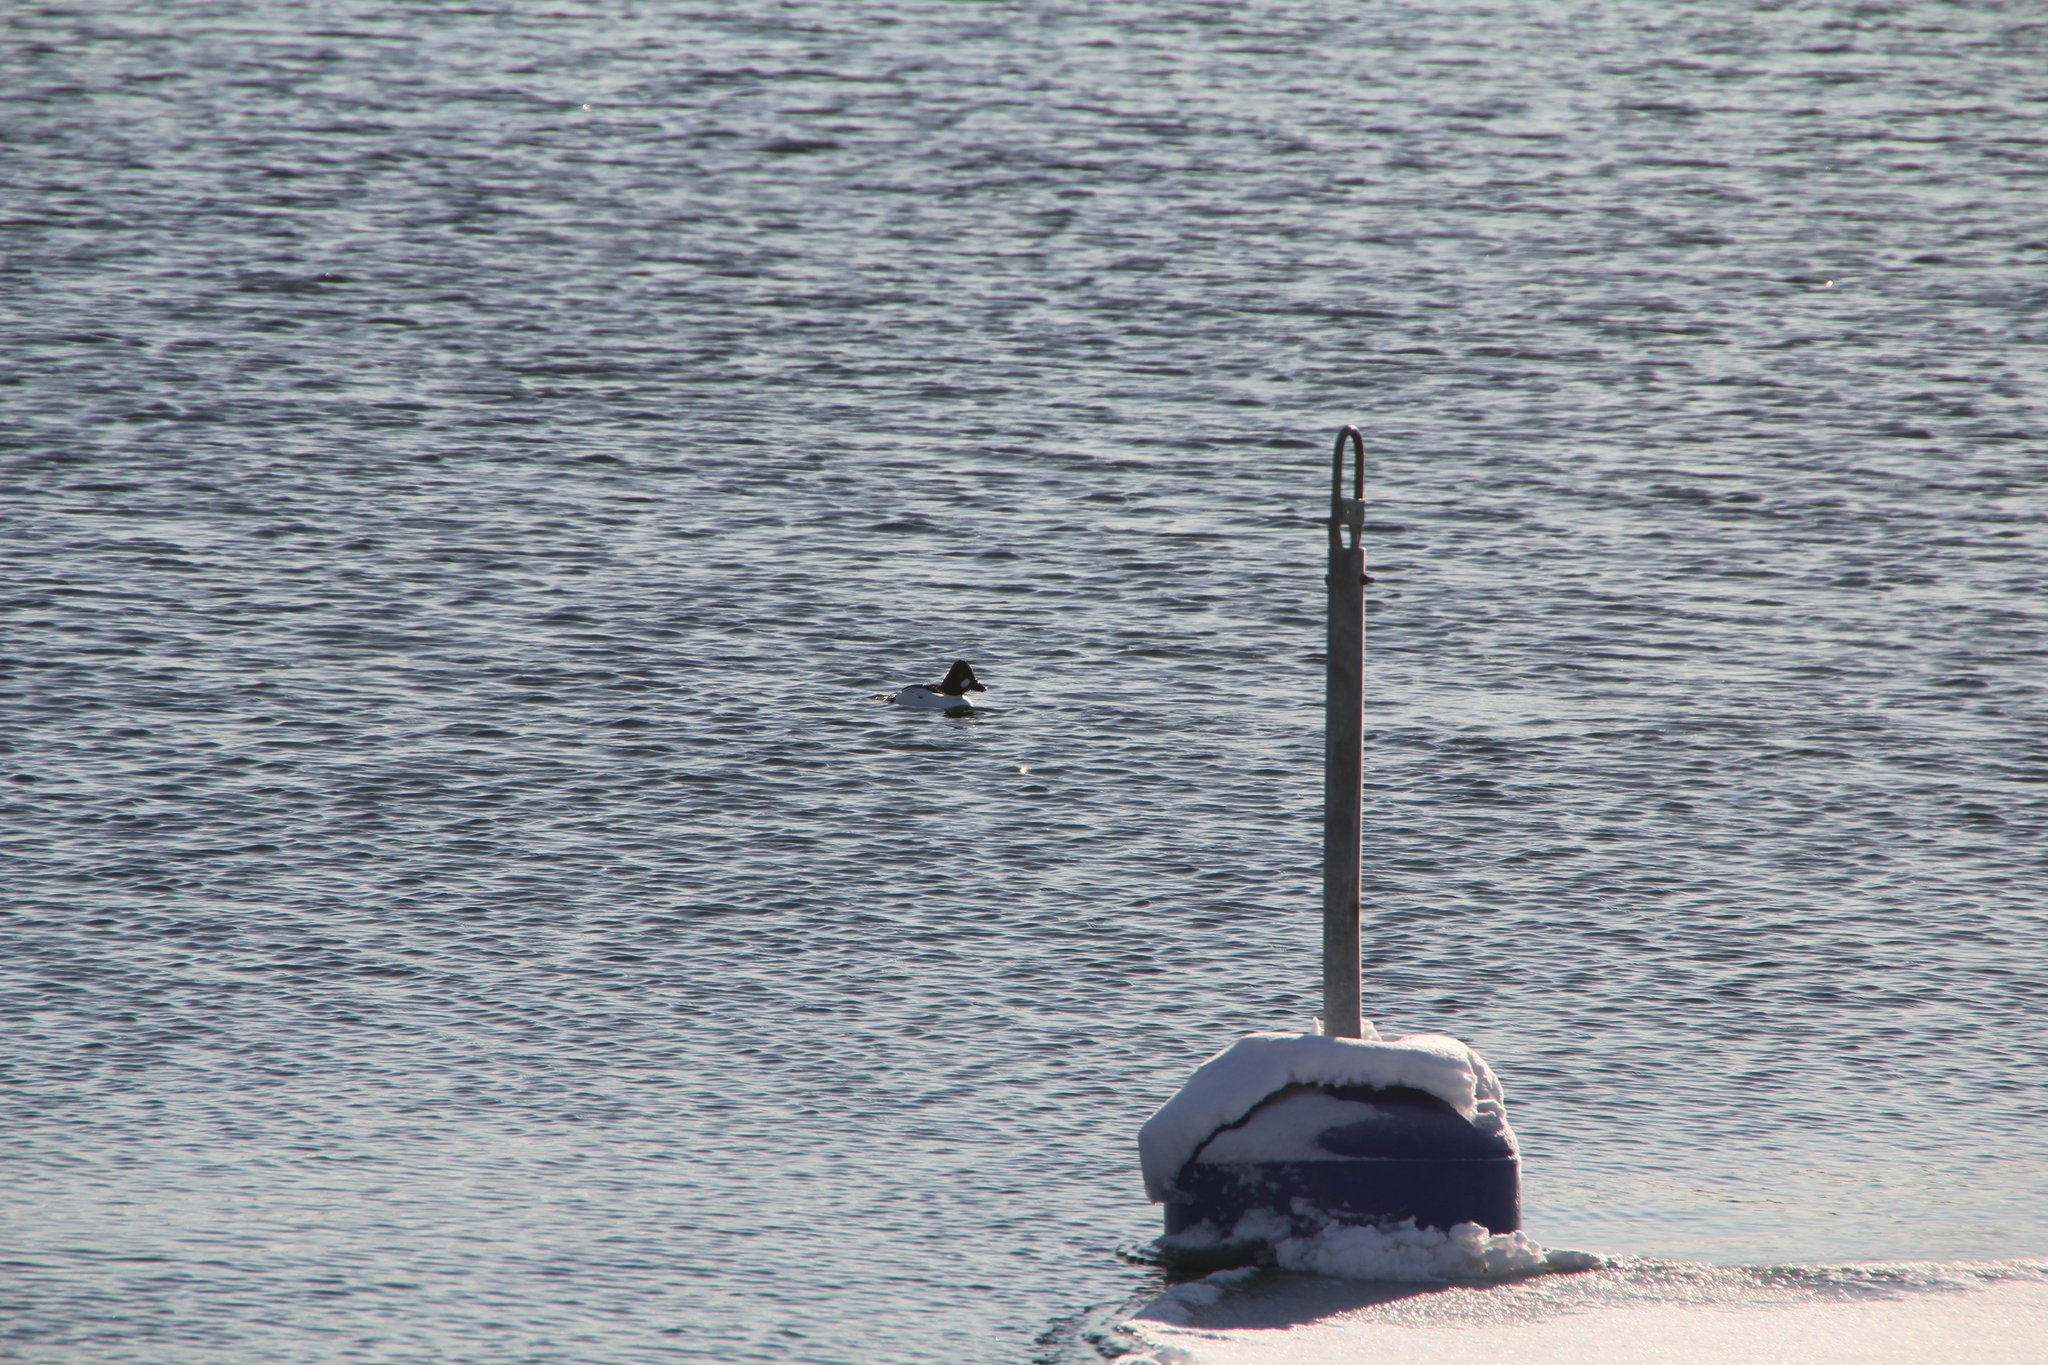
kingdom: Animalia
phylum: Chordata
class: Aves
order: Anseriformes
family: Anatidae
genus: Bucephala
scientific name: Bucephala clangula
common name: Common goldeneye
